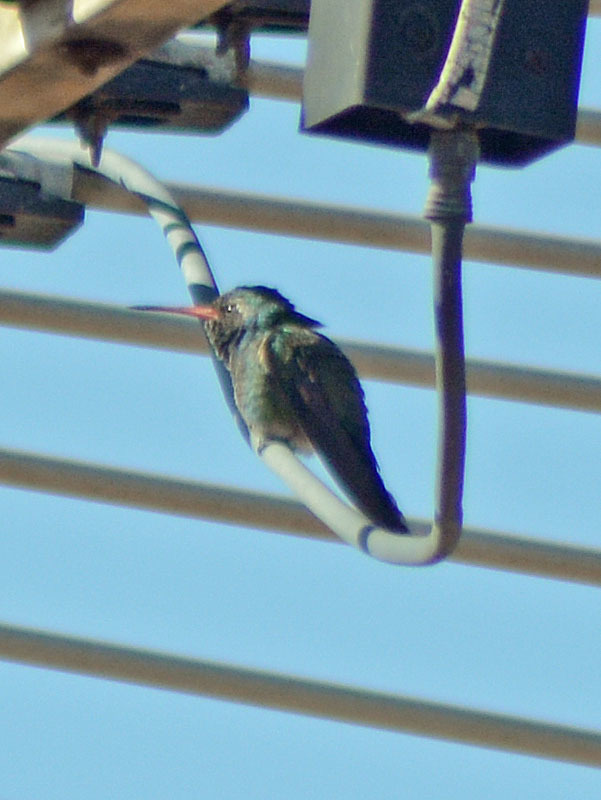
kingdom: Animalia
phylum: Chordata
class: Aves
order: Apodiformes
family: Trochilidae
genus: Cynanthus
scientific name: Cynanthus latirostris
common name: Broad-billed hummingbird
